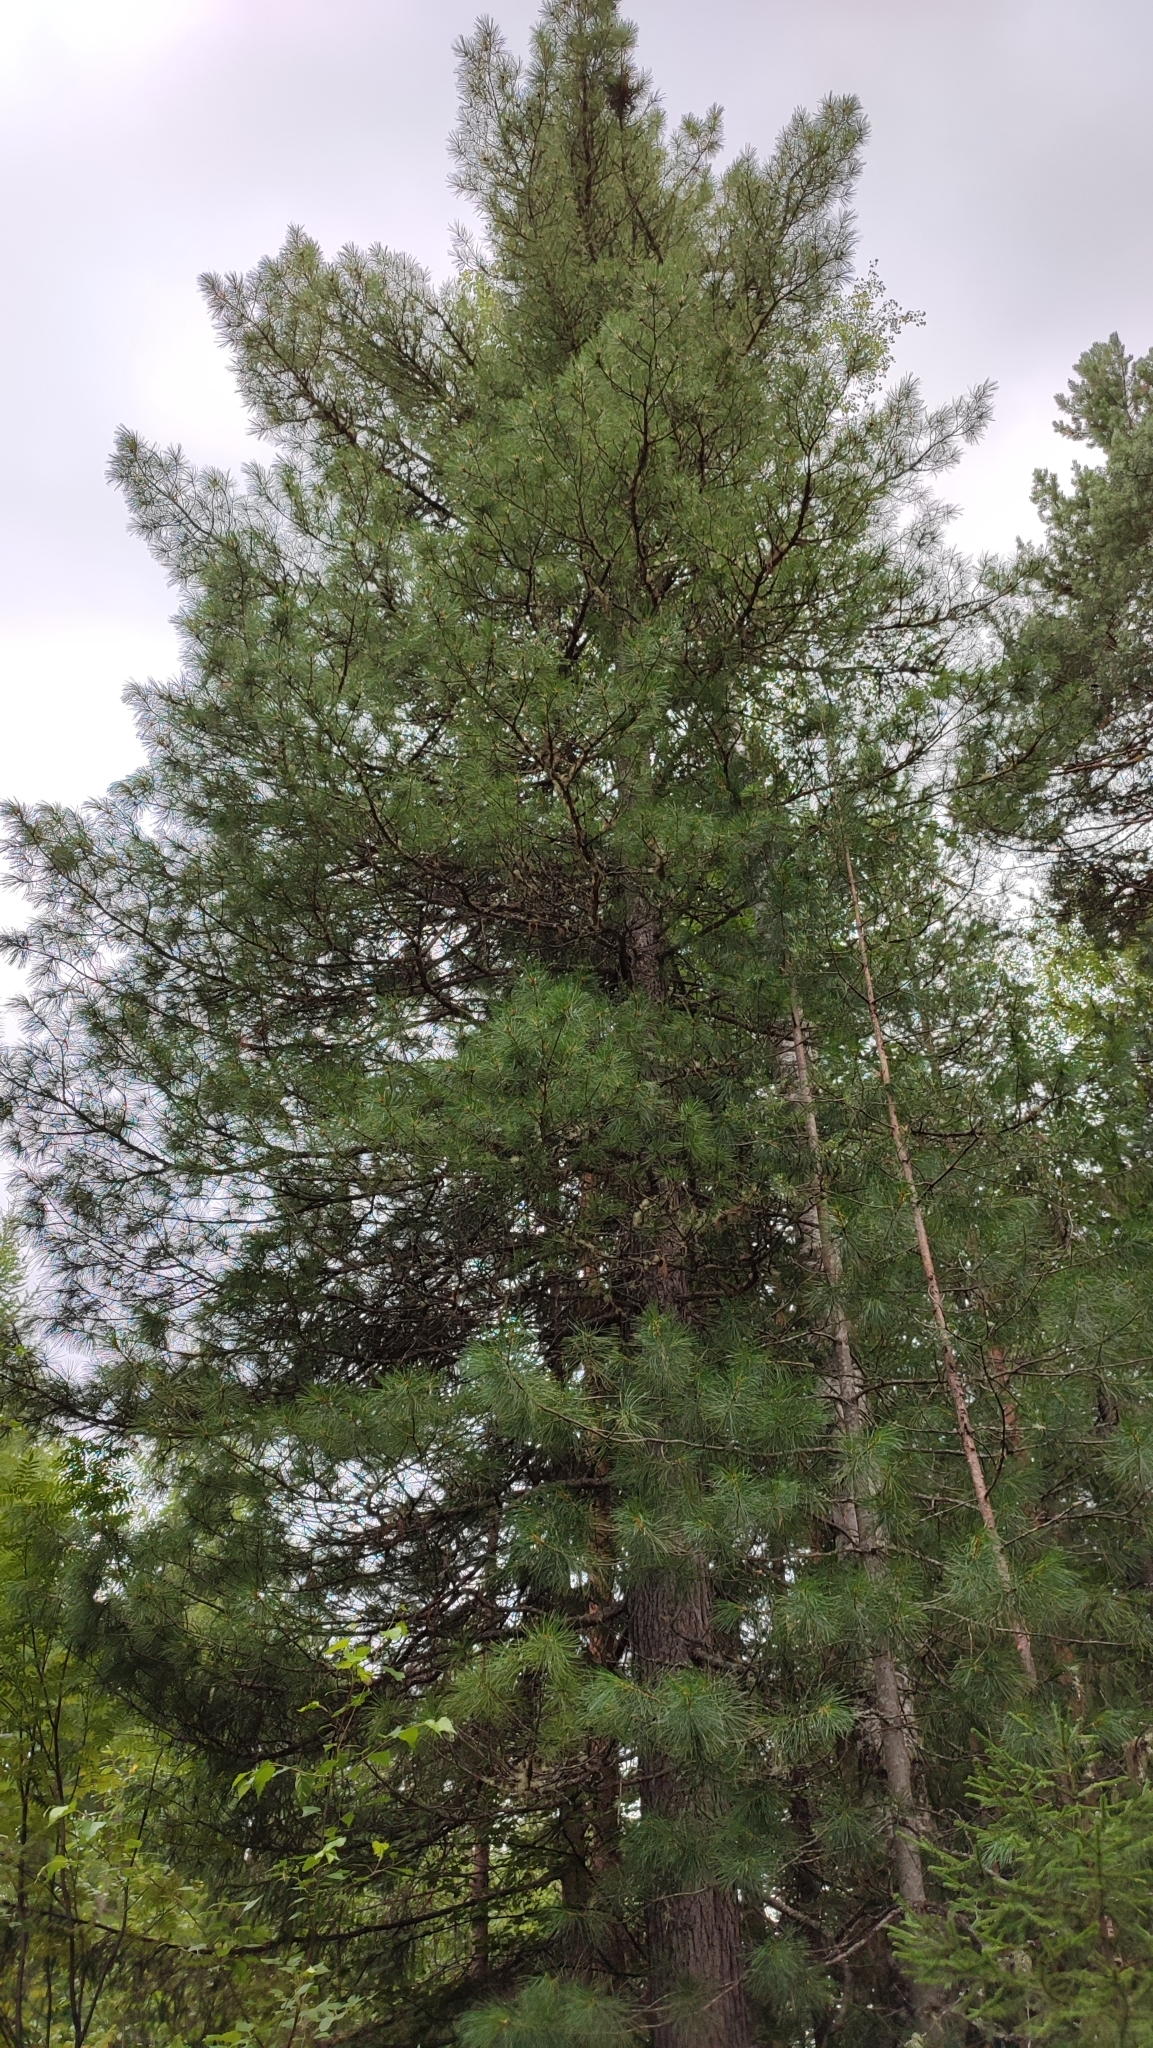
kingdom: Plantae
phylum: Tracheophyta
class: Pinopsida
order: Pinales
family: Pinaceae
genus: Pinus
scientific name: Pinus sibirica
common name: Siberian pine
